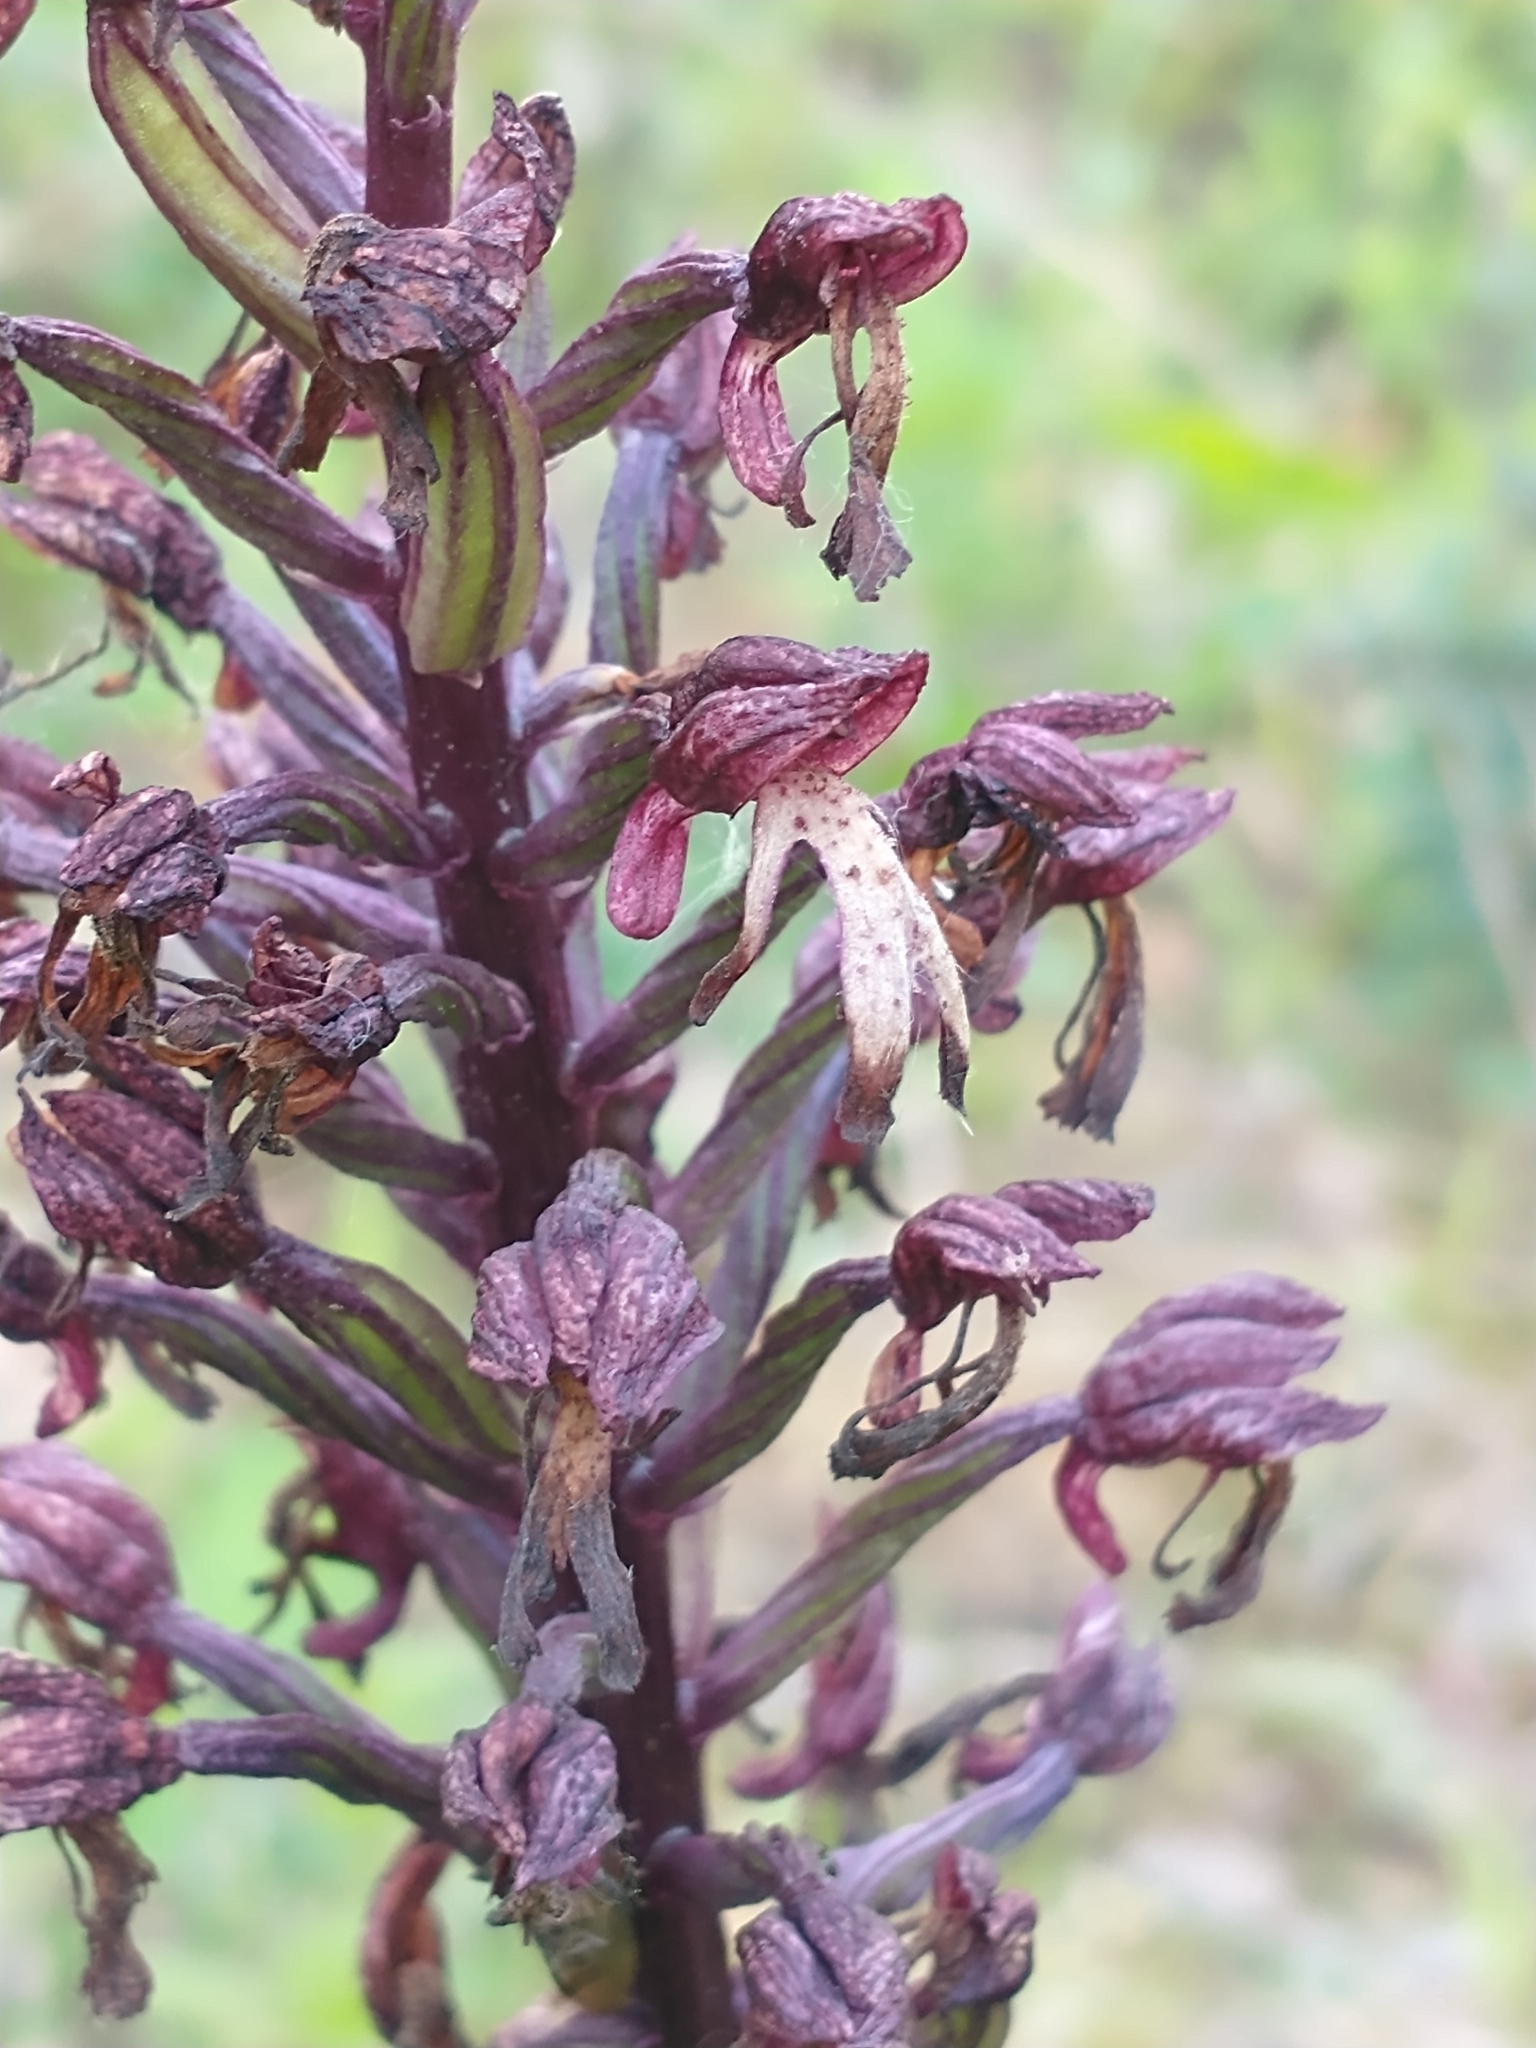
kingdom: Plantae
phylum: Tracheophyta
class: Liliopsida
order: Asparagales
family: Orchidaceae
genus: Orchis
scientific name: Orchis hybrida
